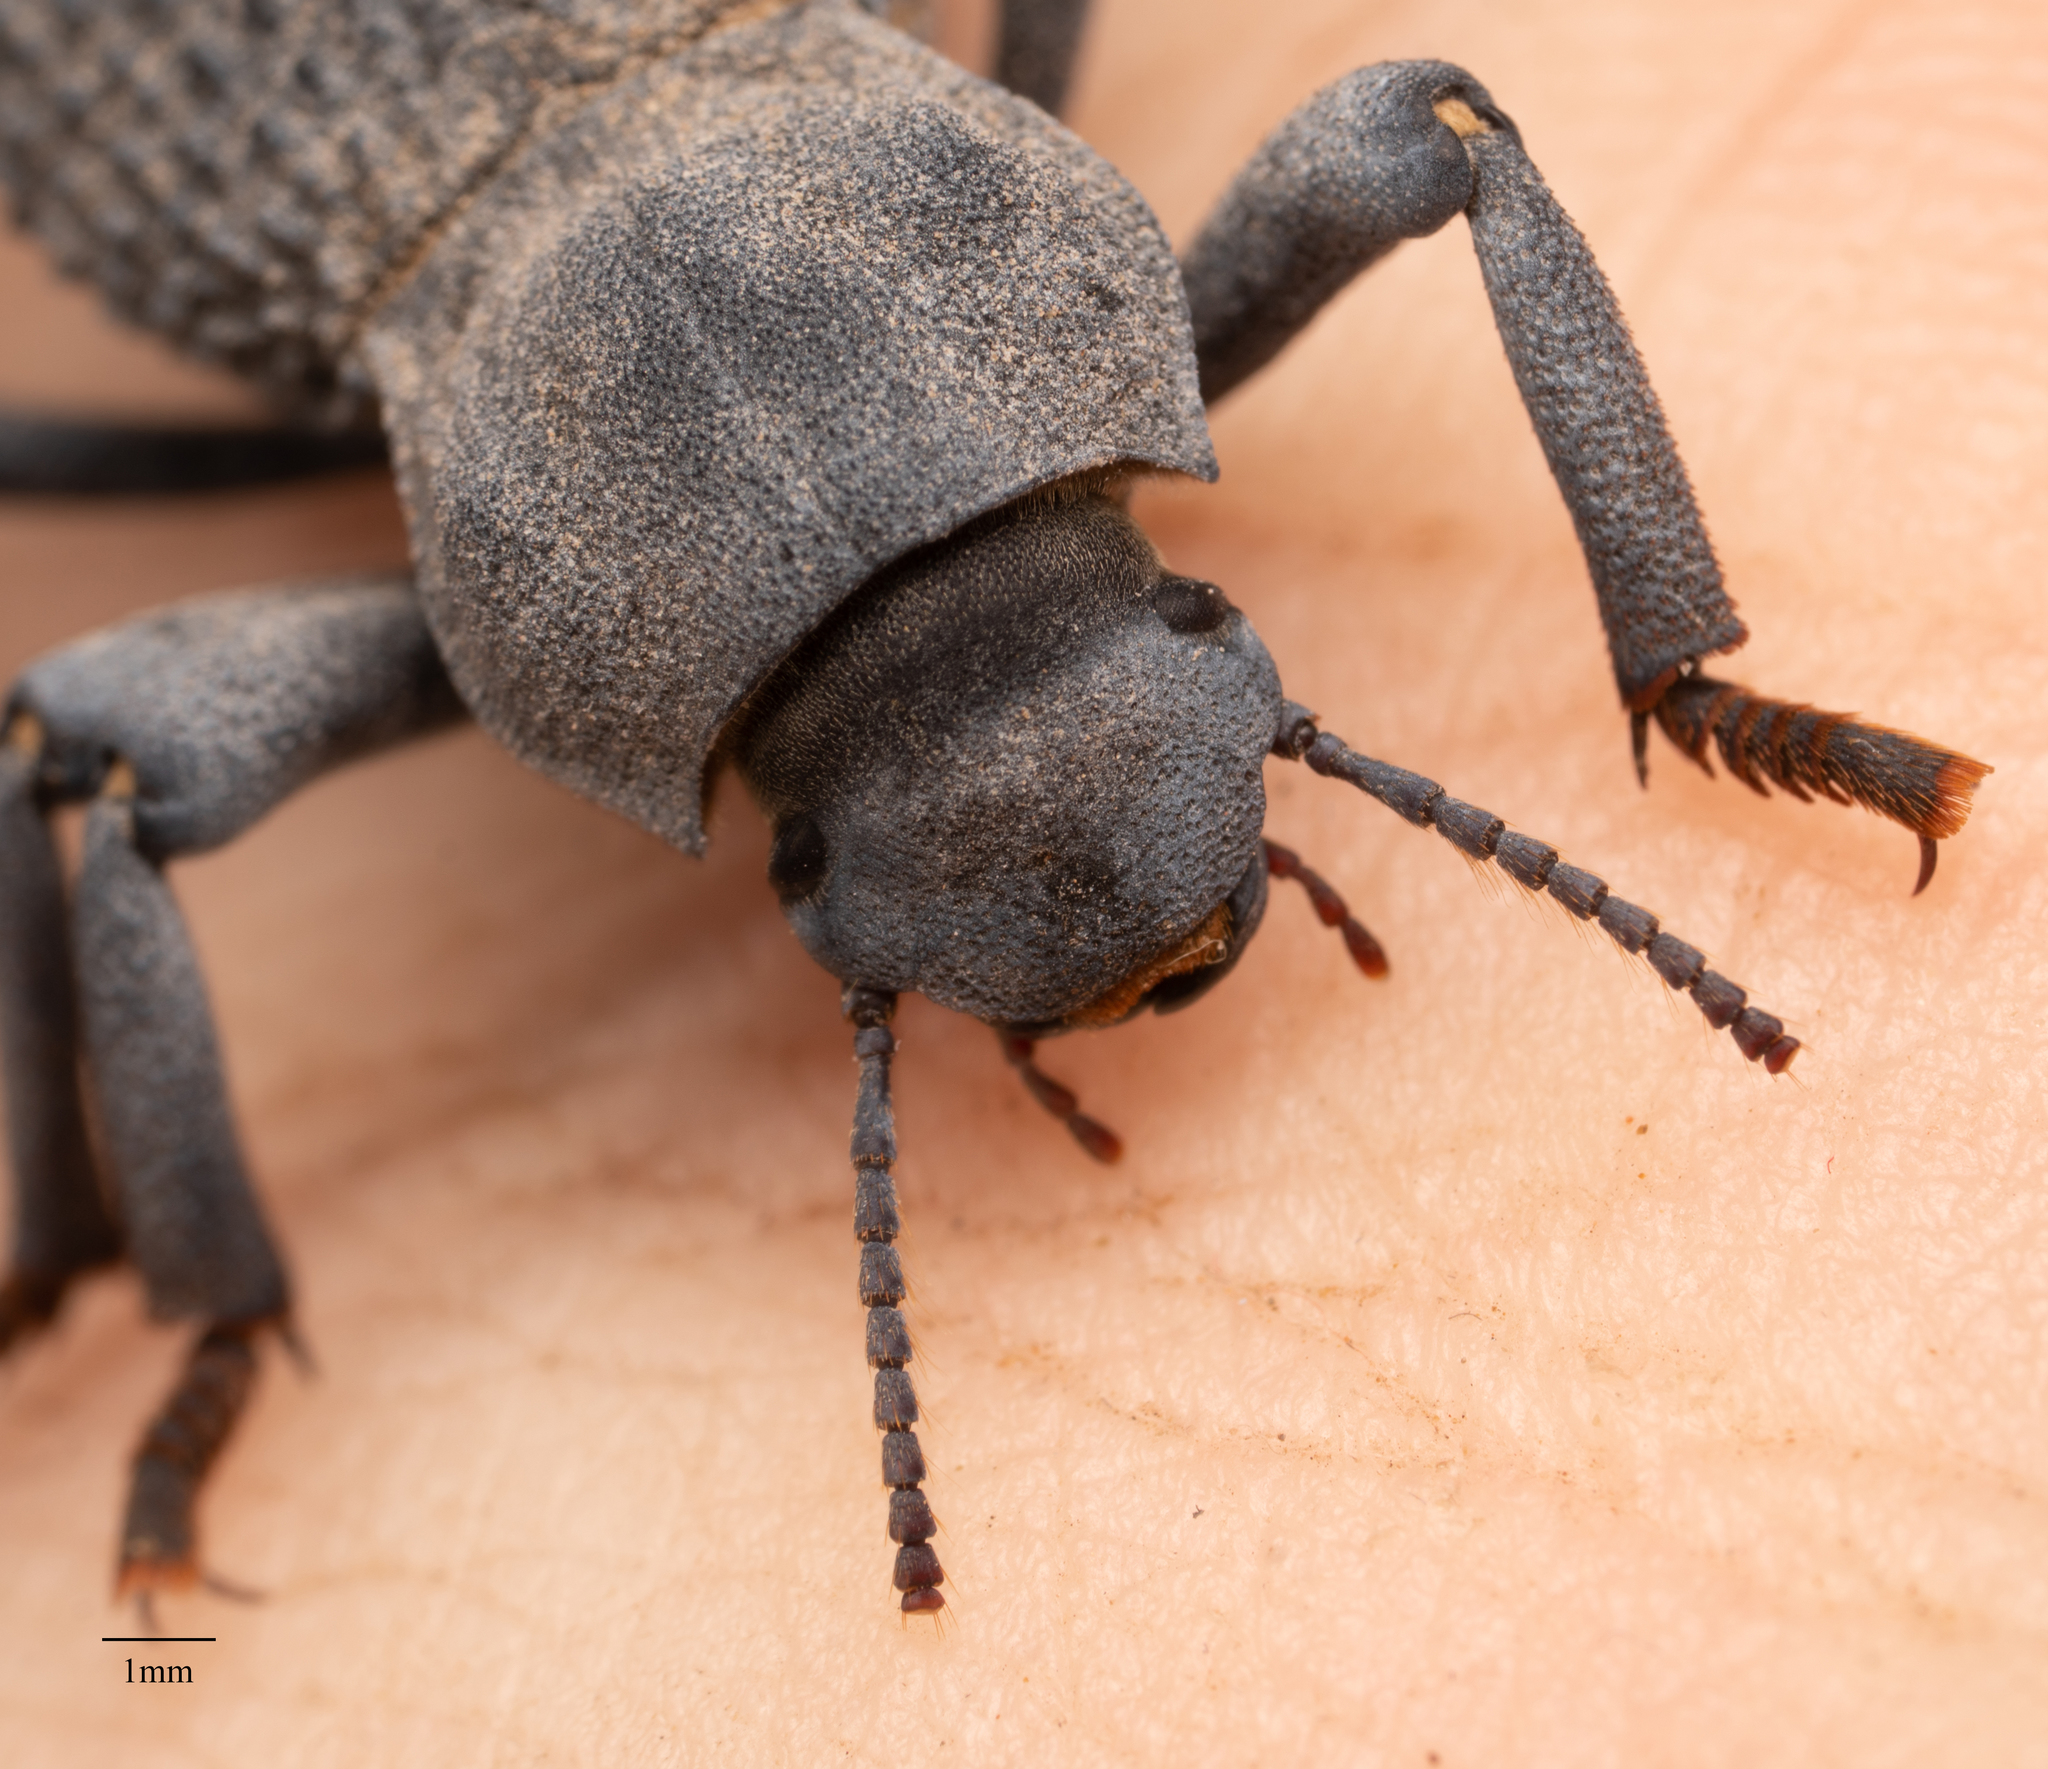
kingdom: Animalia
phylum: Arthropoda
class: Insecta
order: Coleoptera
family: Tenebrionidae
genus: Asbolus
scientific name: Asbolus verrucosus
